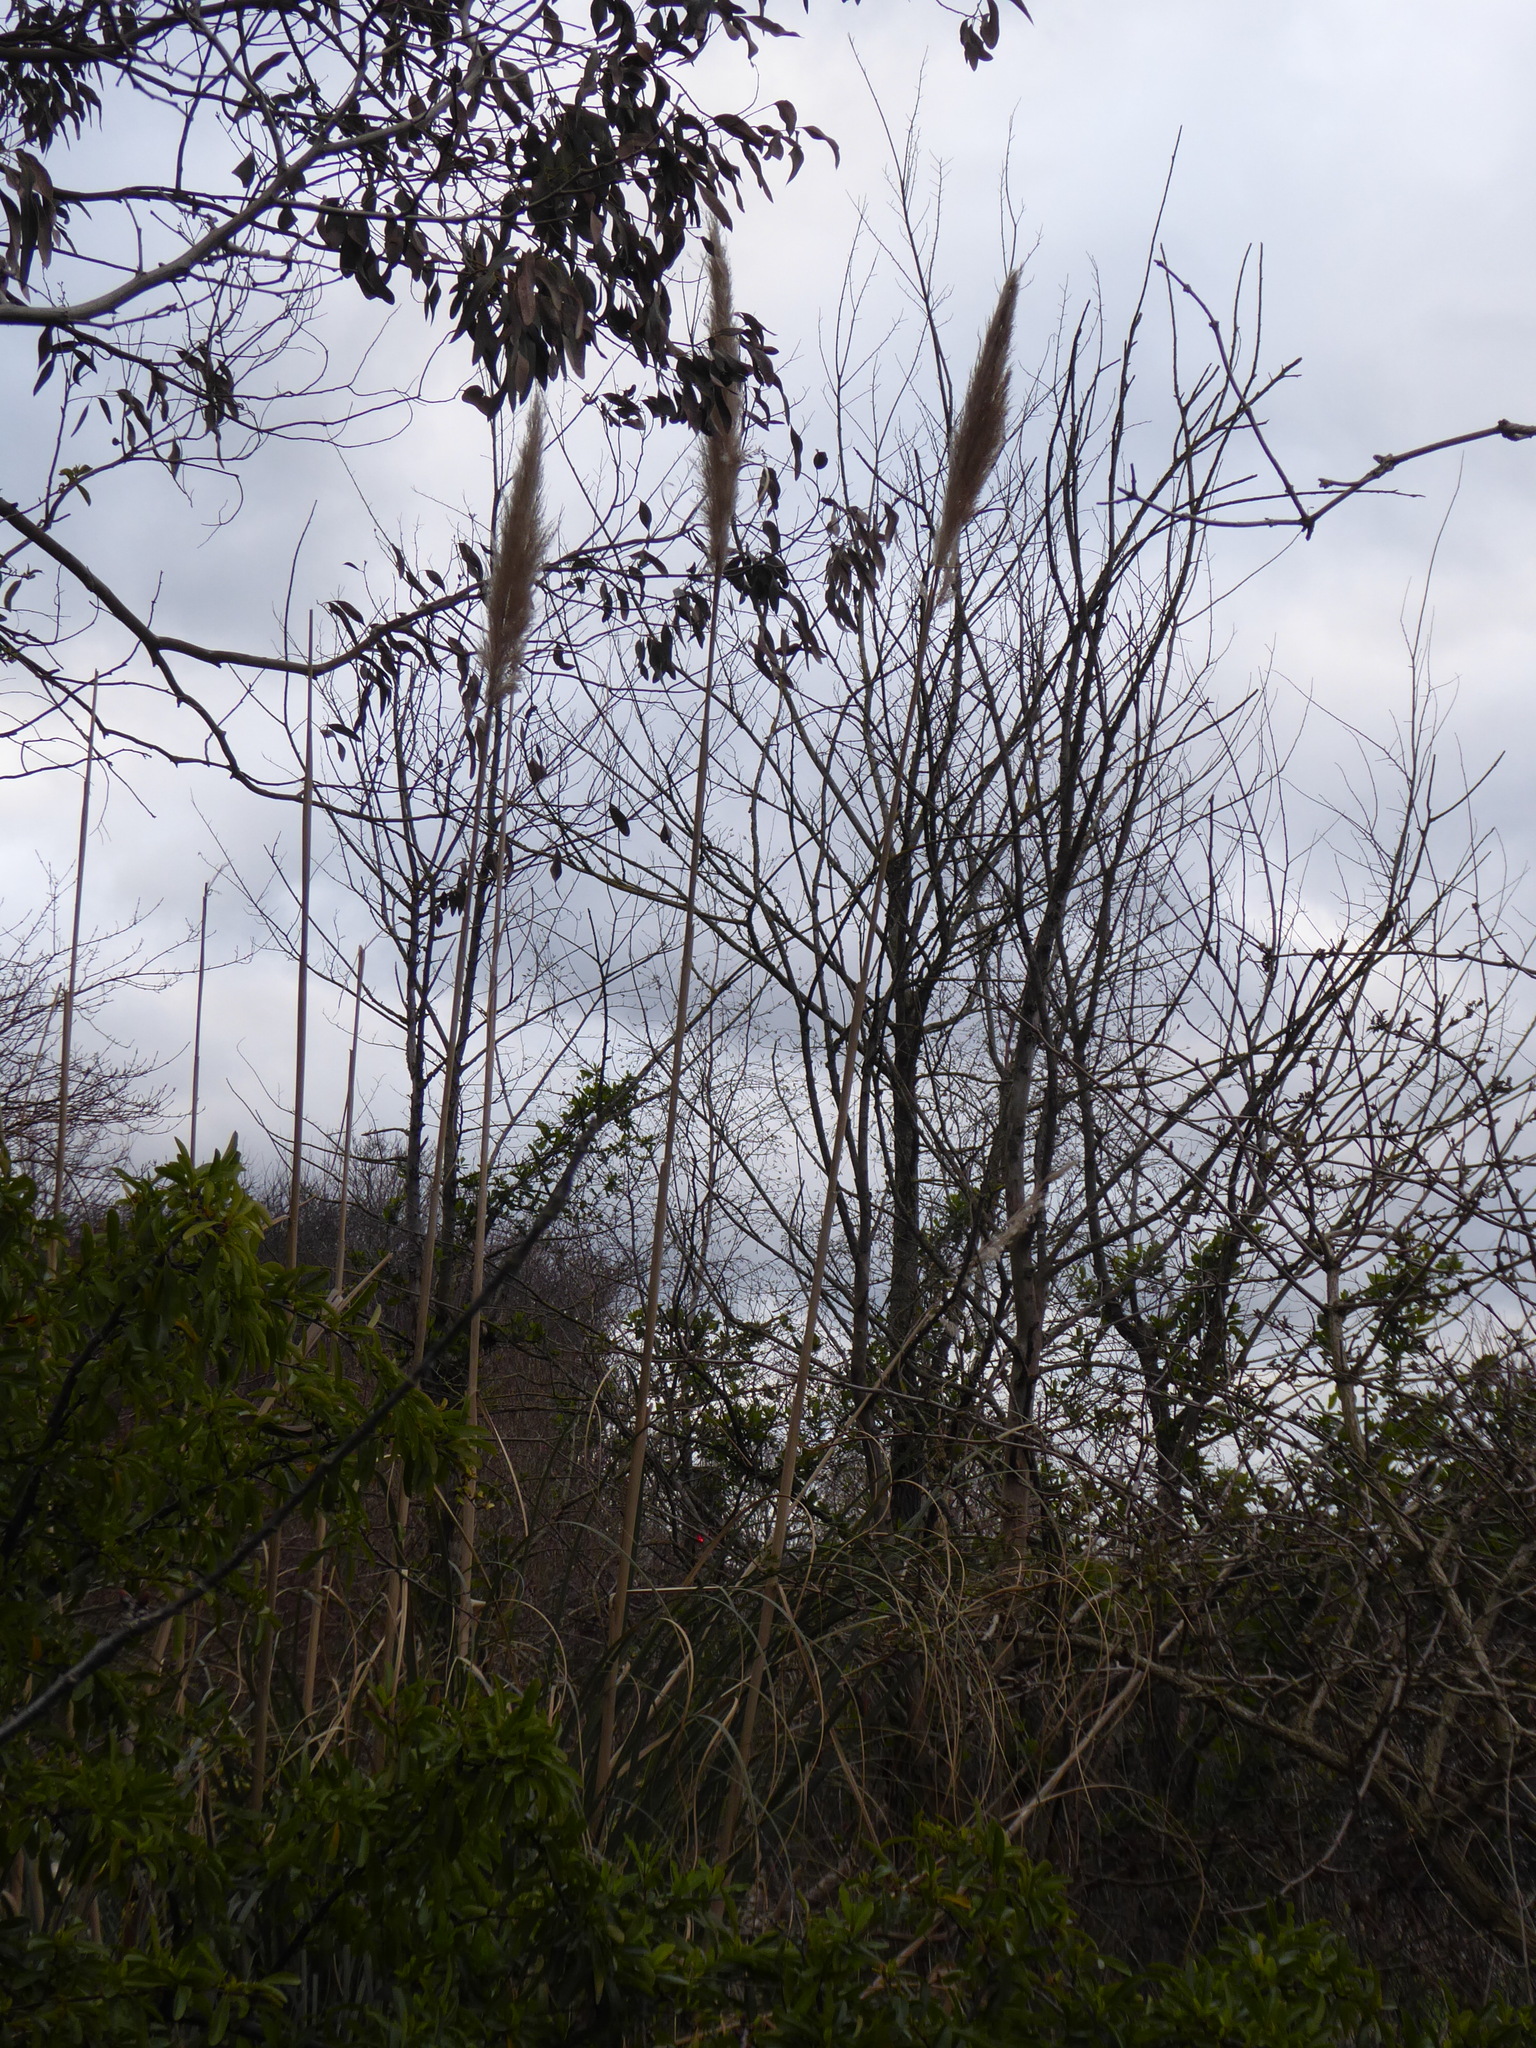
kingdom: Plantae
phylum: Tracheophyta
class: Liliopsida
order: Poales
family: Poaceae
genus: Cortaderia
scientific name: Cortaderia selloana
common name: Uruguayan pampas grass
